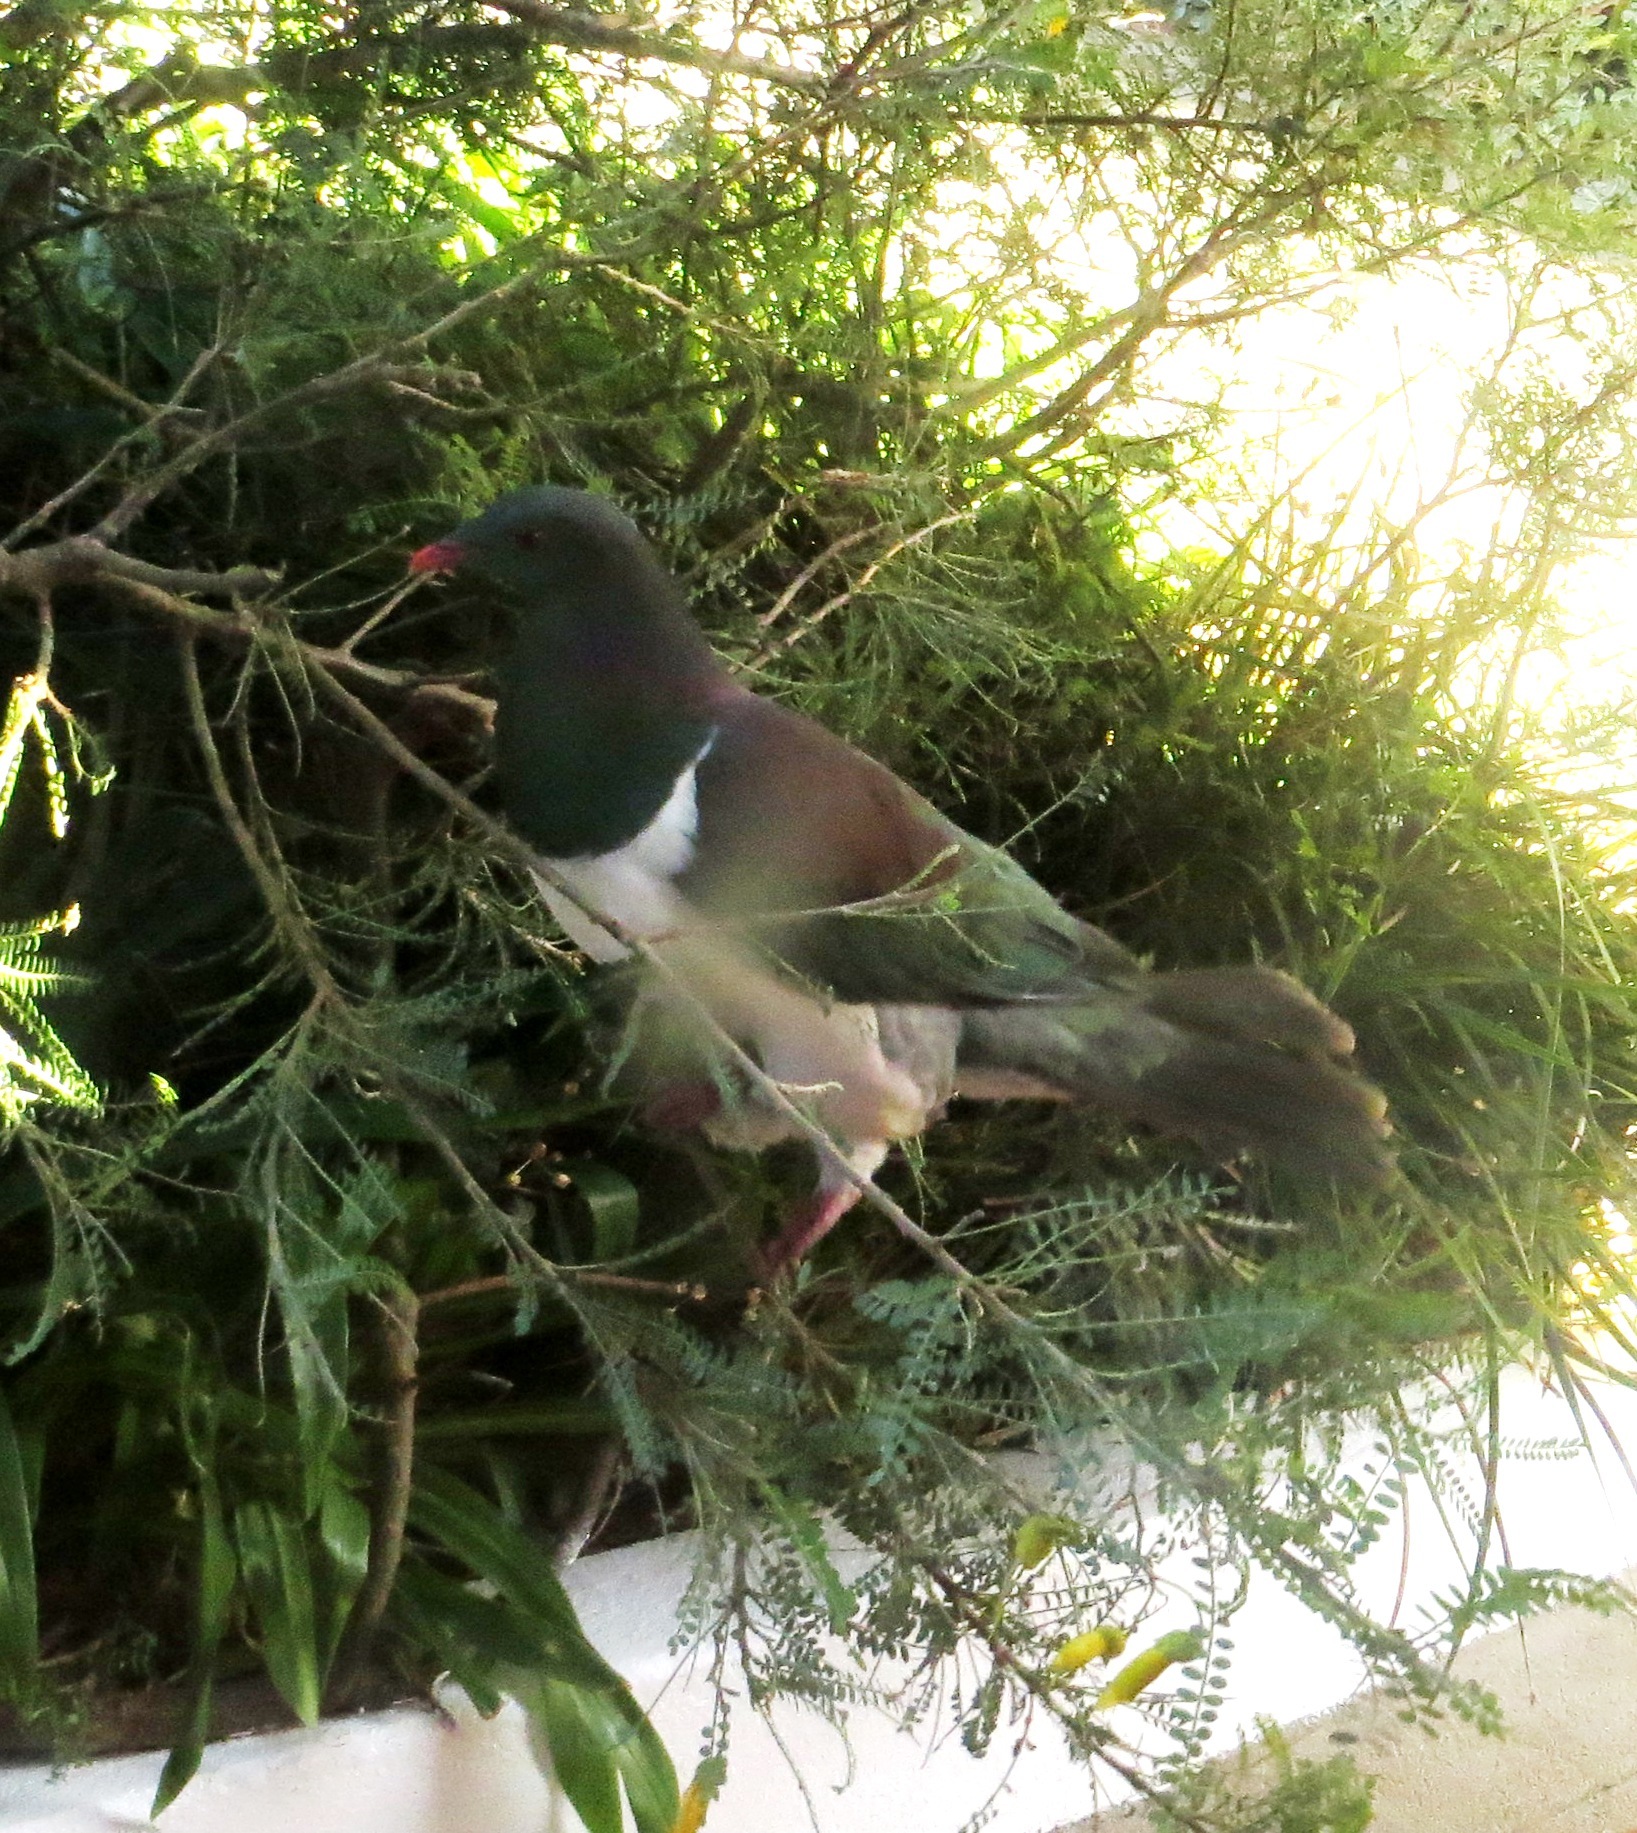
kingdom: Animalia
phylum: Chordata
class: Aves
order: Columbiformes
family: Columbidae
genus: Hemiphaga
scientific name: Hemiphaga novaeseelandiae
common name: New zealand pigeon
